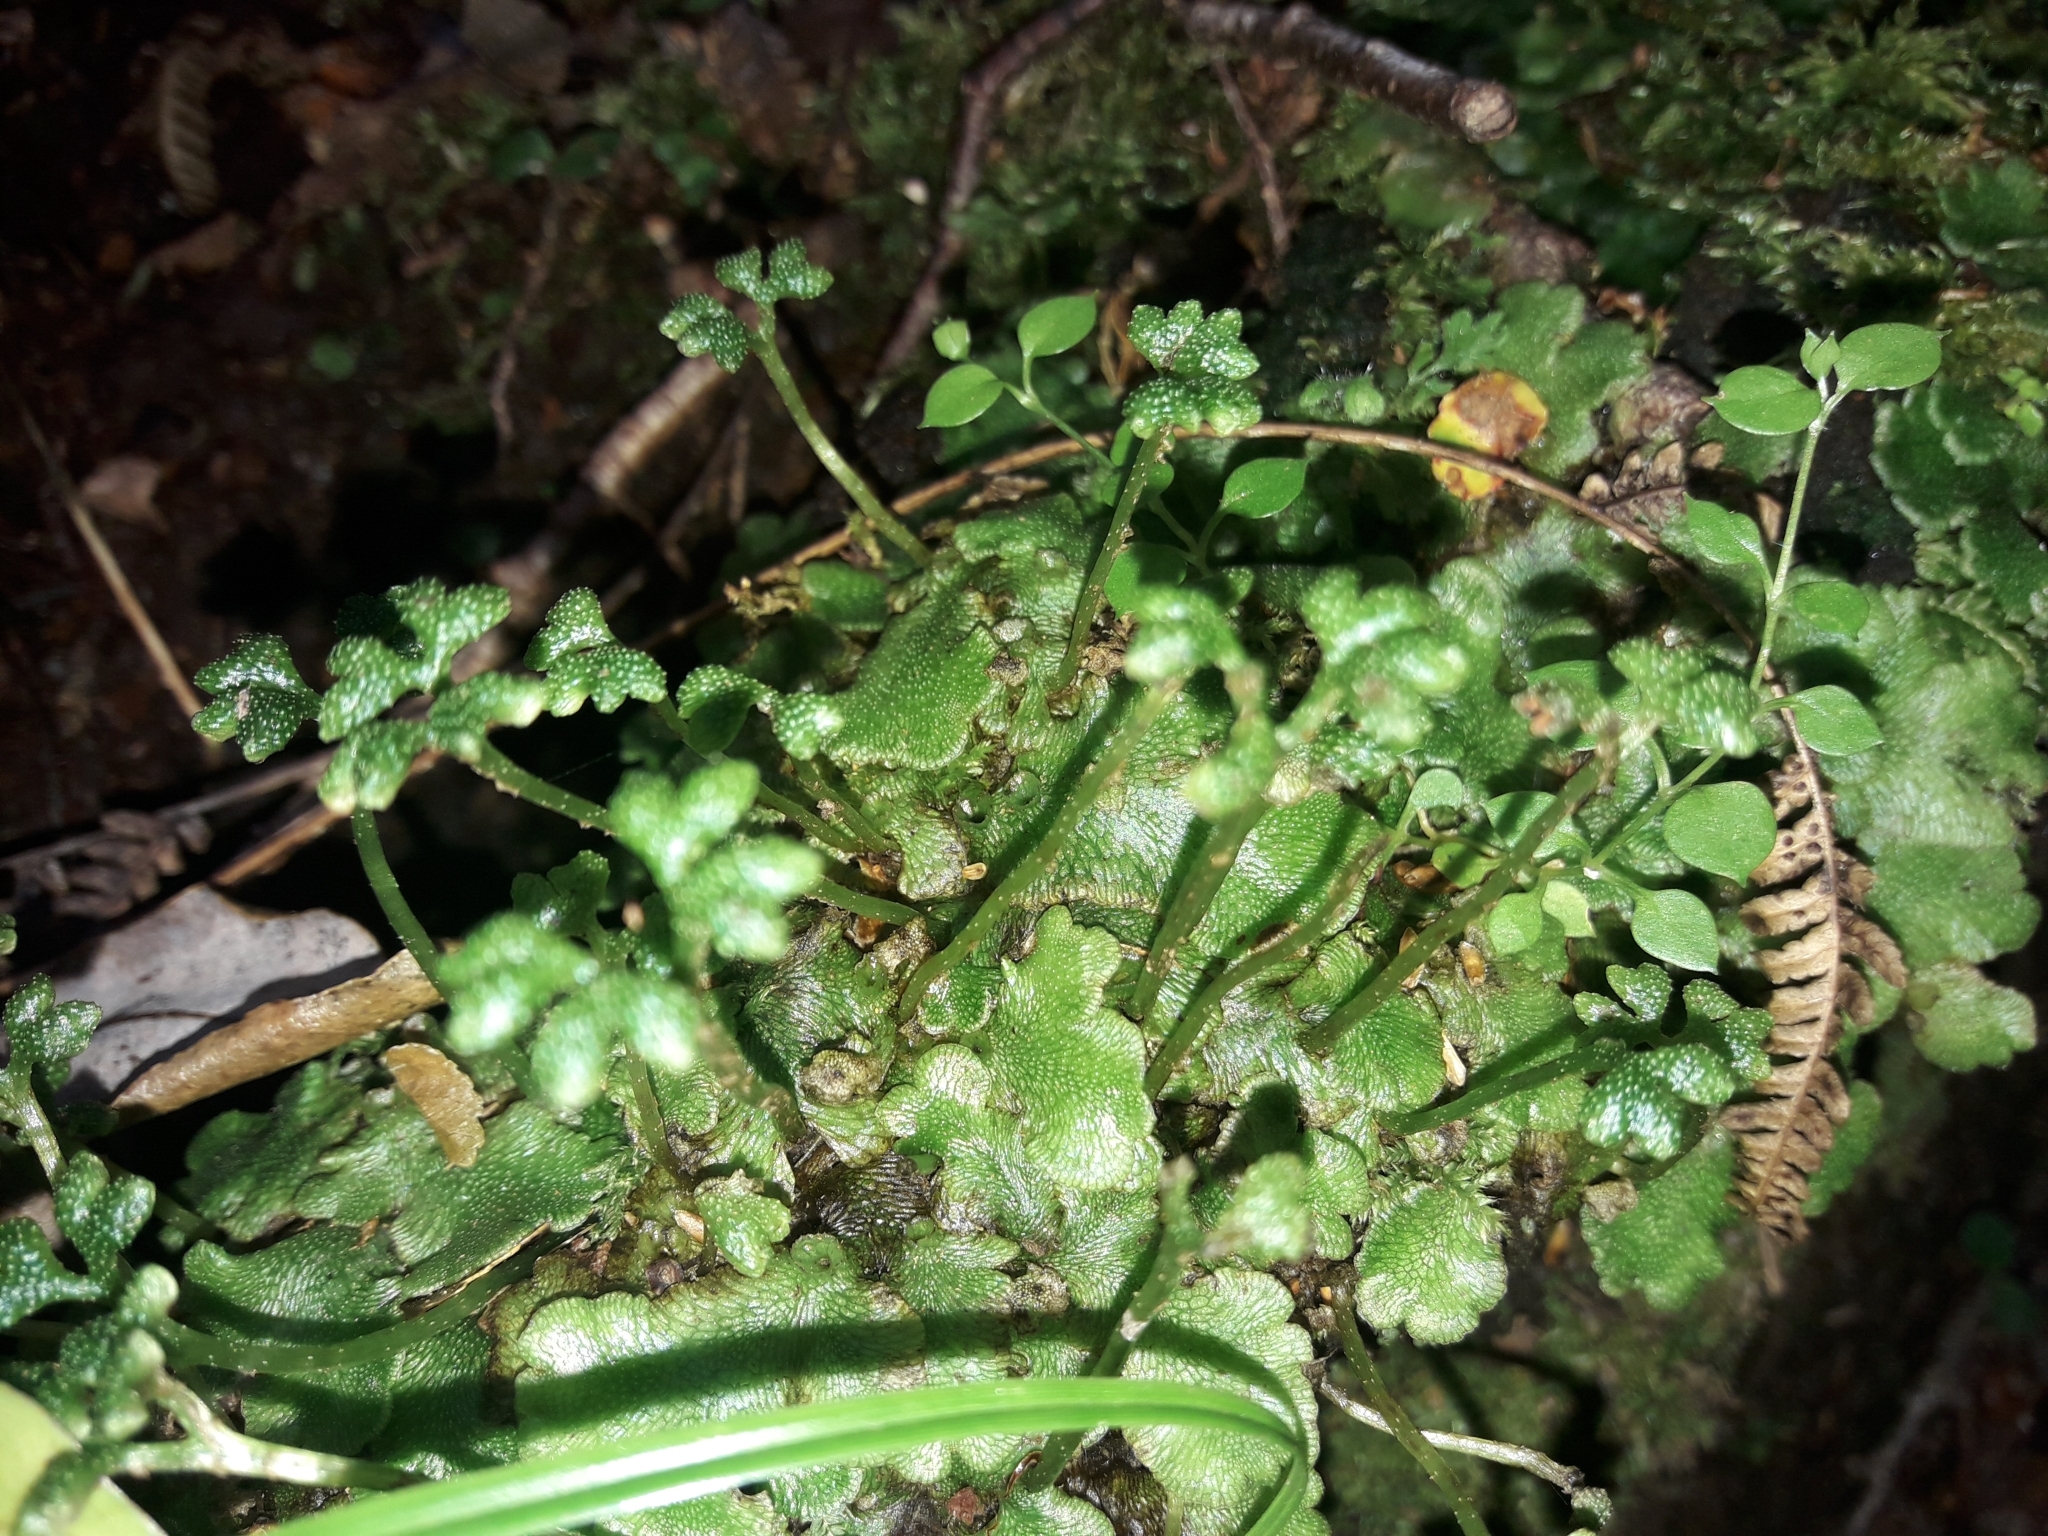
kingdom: Plantae
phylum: Marchantiophyta
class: Marchantiopsida
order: Neohodgsoniales
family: Neohodgsoniaceae
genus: Neohodgsonia
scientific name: Neohodgsonia mirabilis
